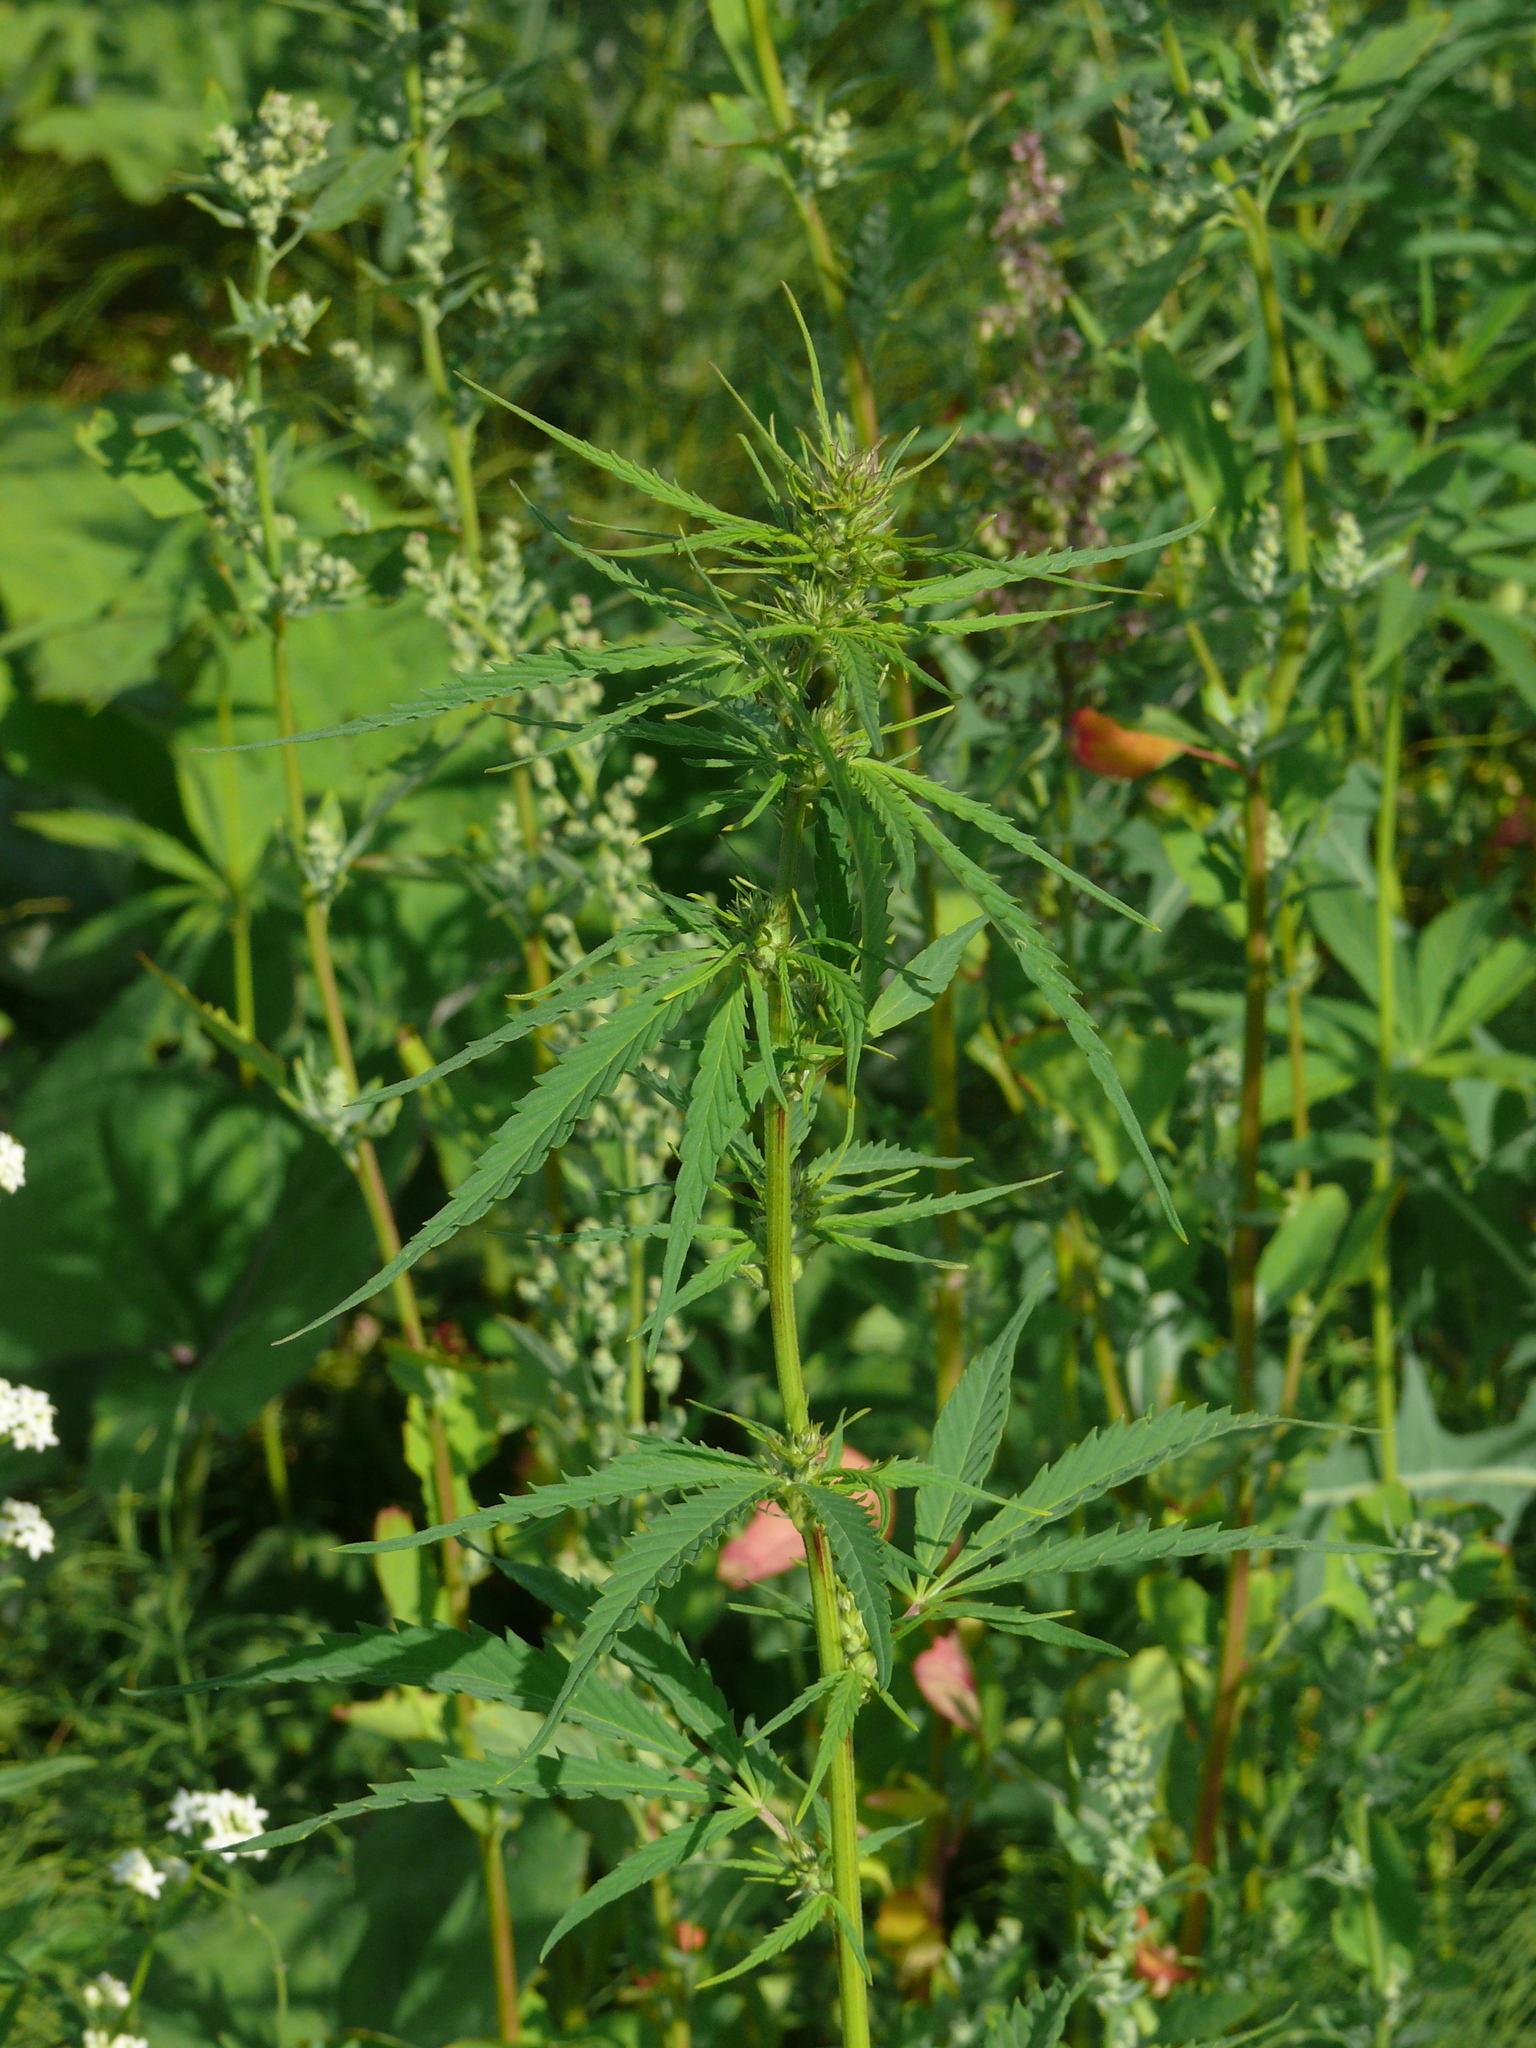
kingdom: Plantae
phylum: Tracheophyta
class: Magnoliopsida
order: Rosales
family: Cannabaceae
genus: Cannabis
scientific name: Cannabis sativa
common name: Hemp
